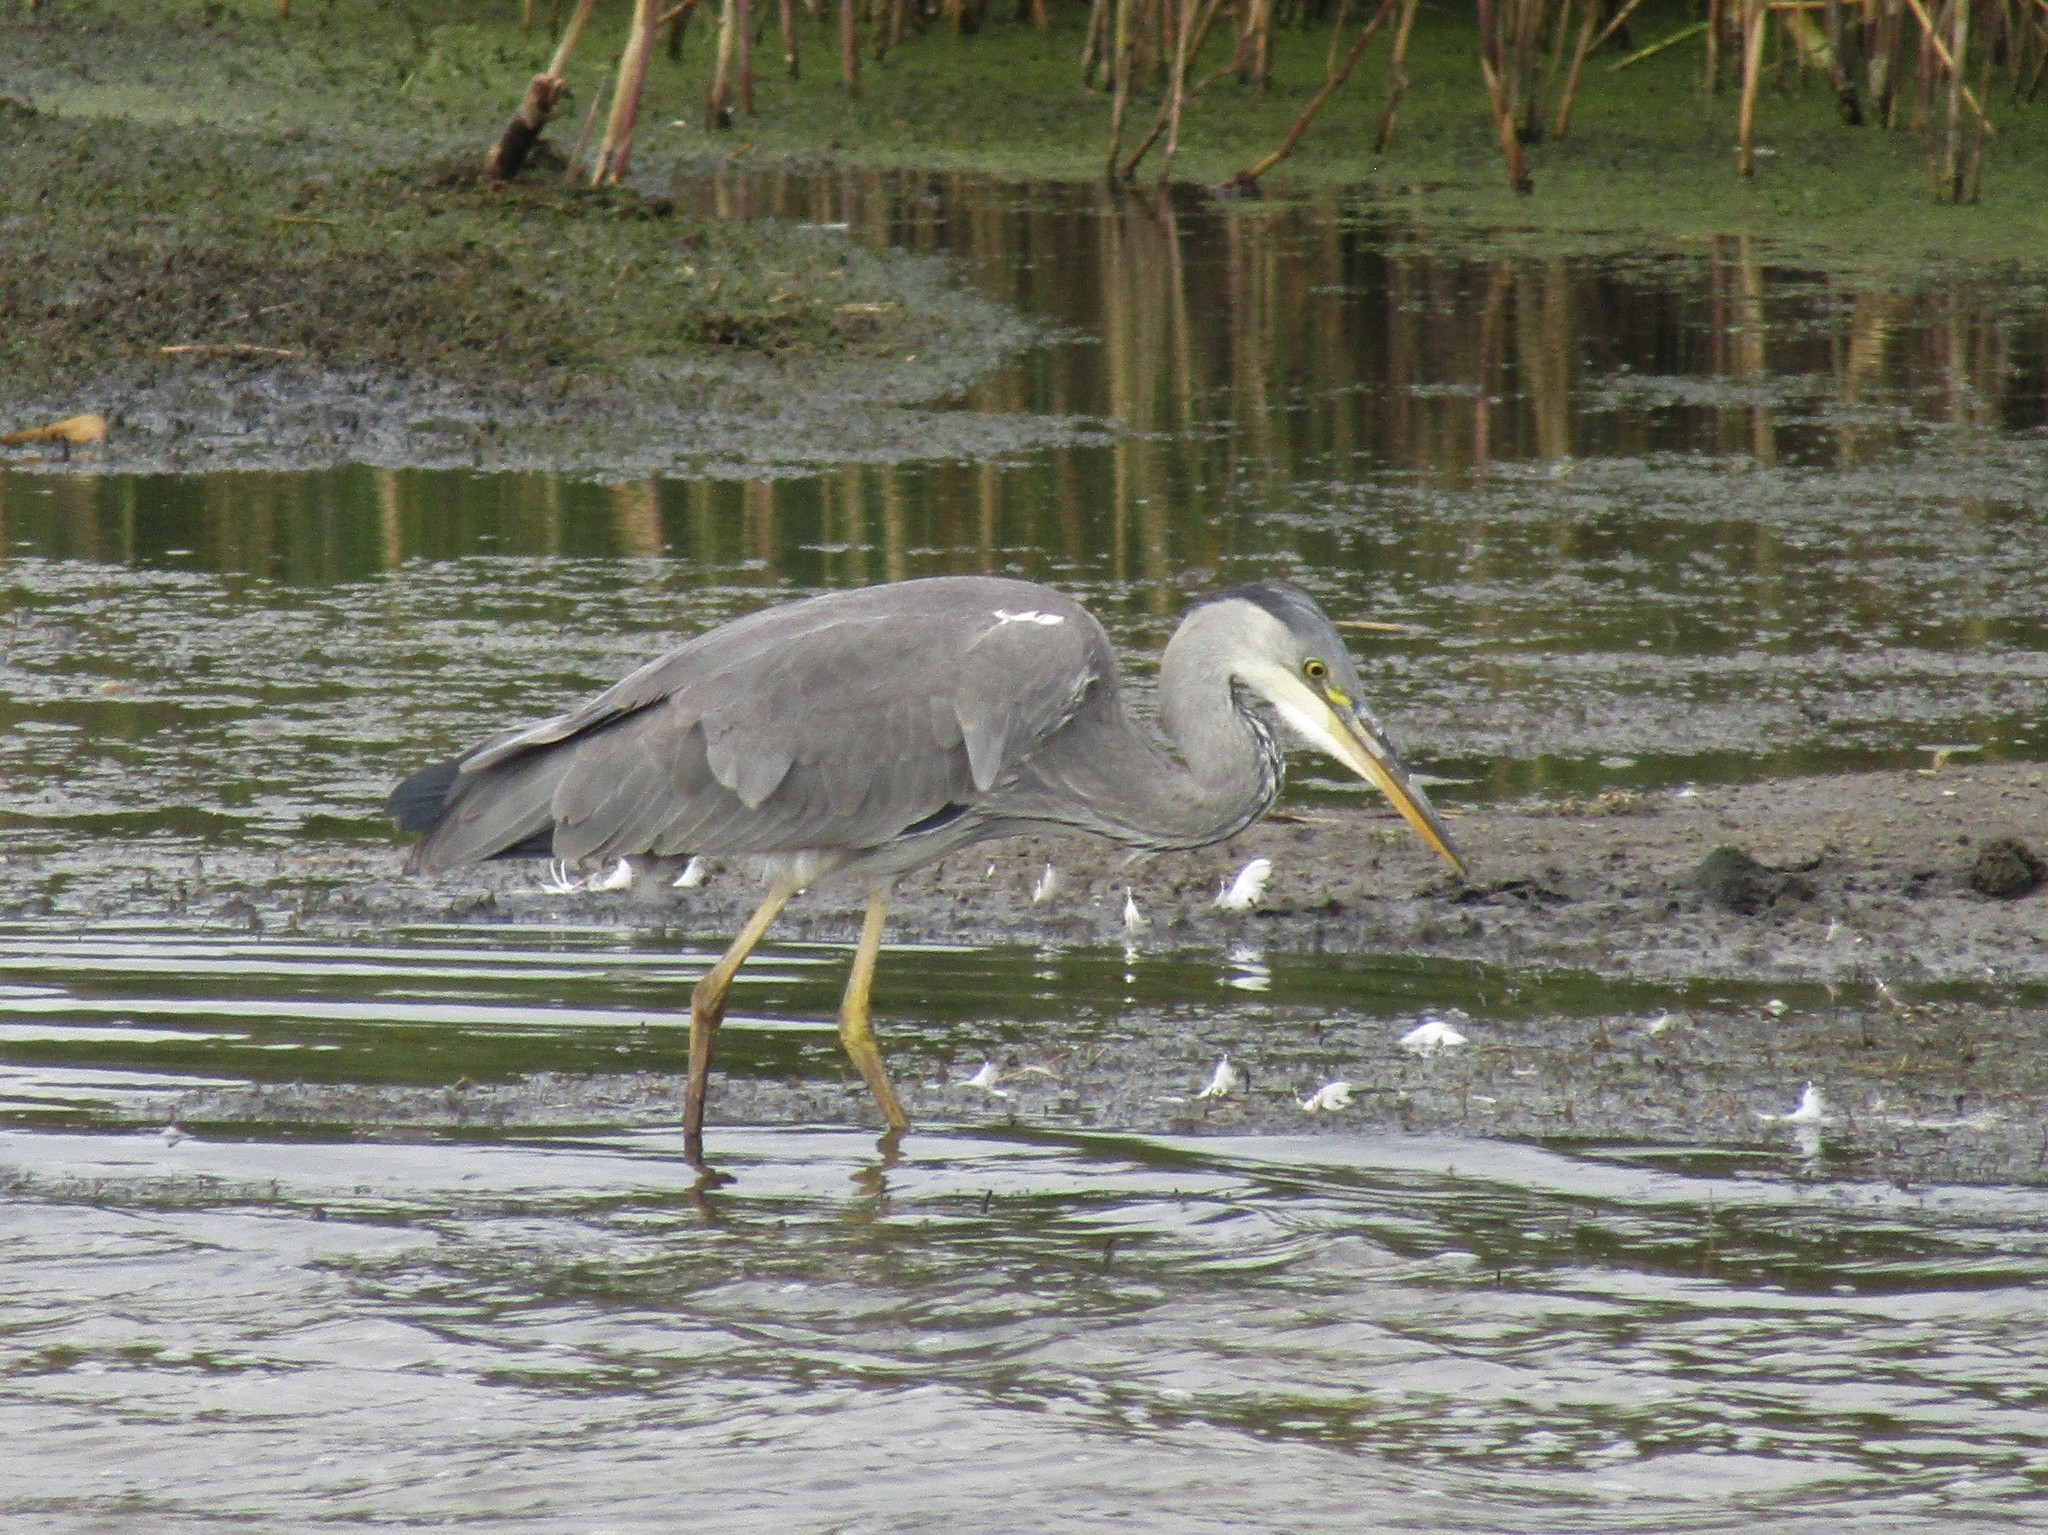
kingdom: Animalia
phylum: Chordata
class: Aves
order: Pelecaniformes
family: Ardeidae
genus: Ardea
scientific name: Ardea cinerea
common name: Grey heron
